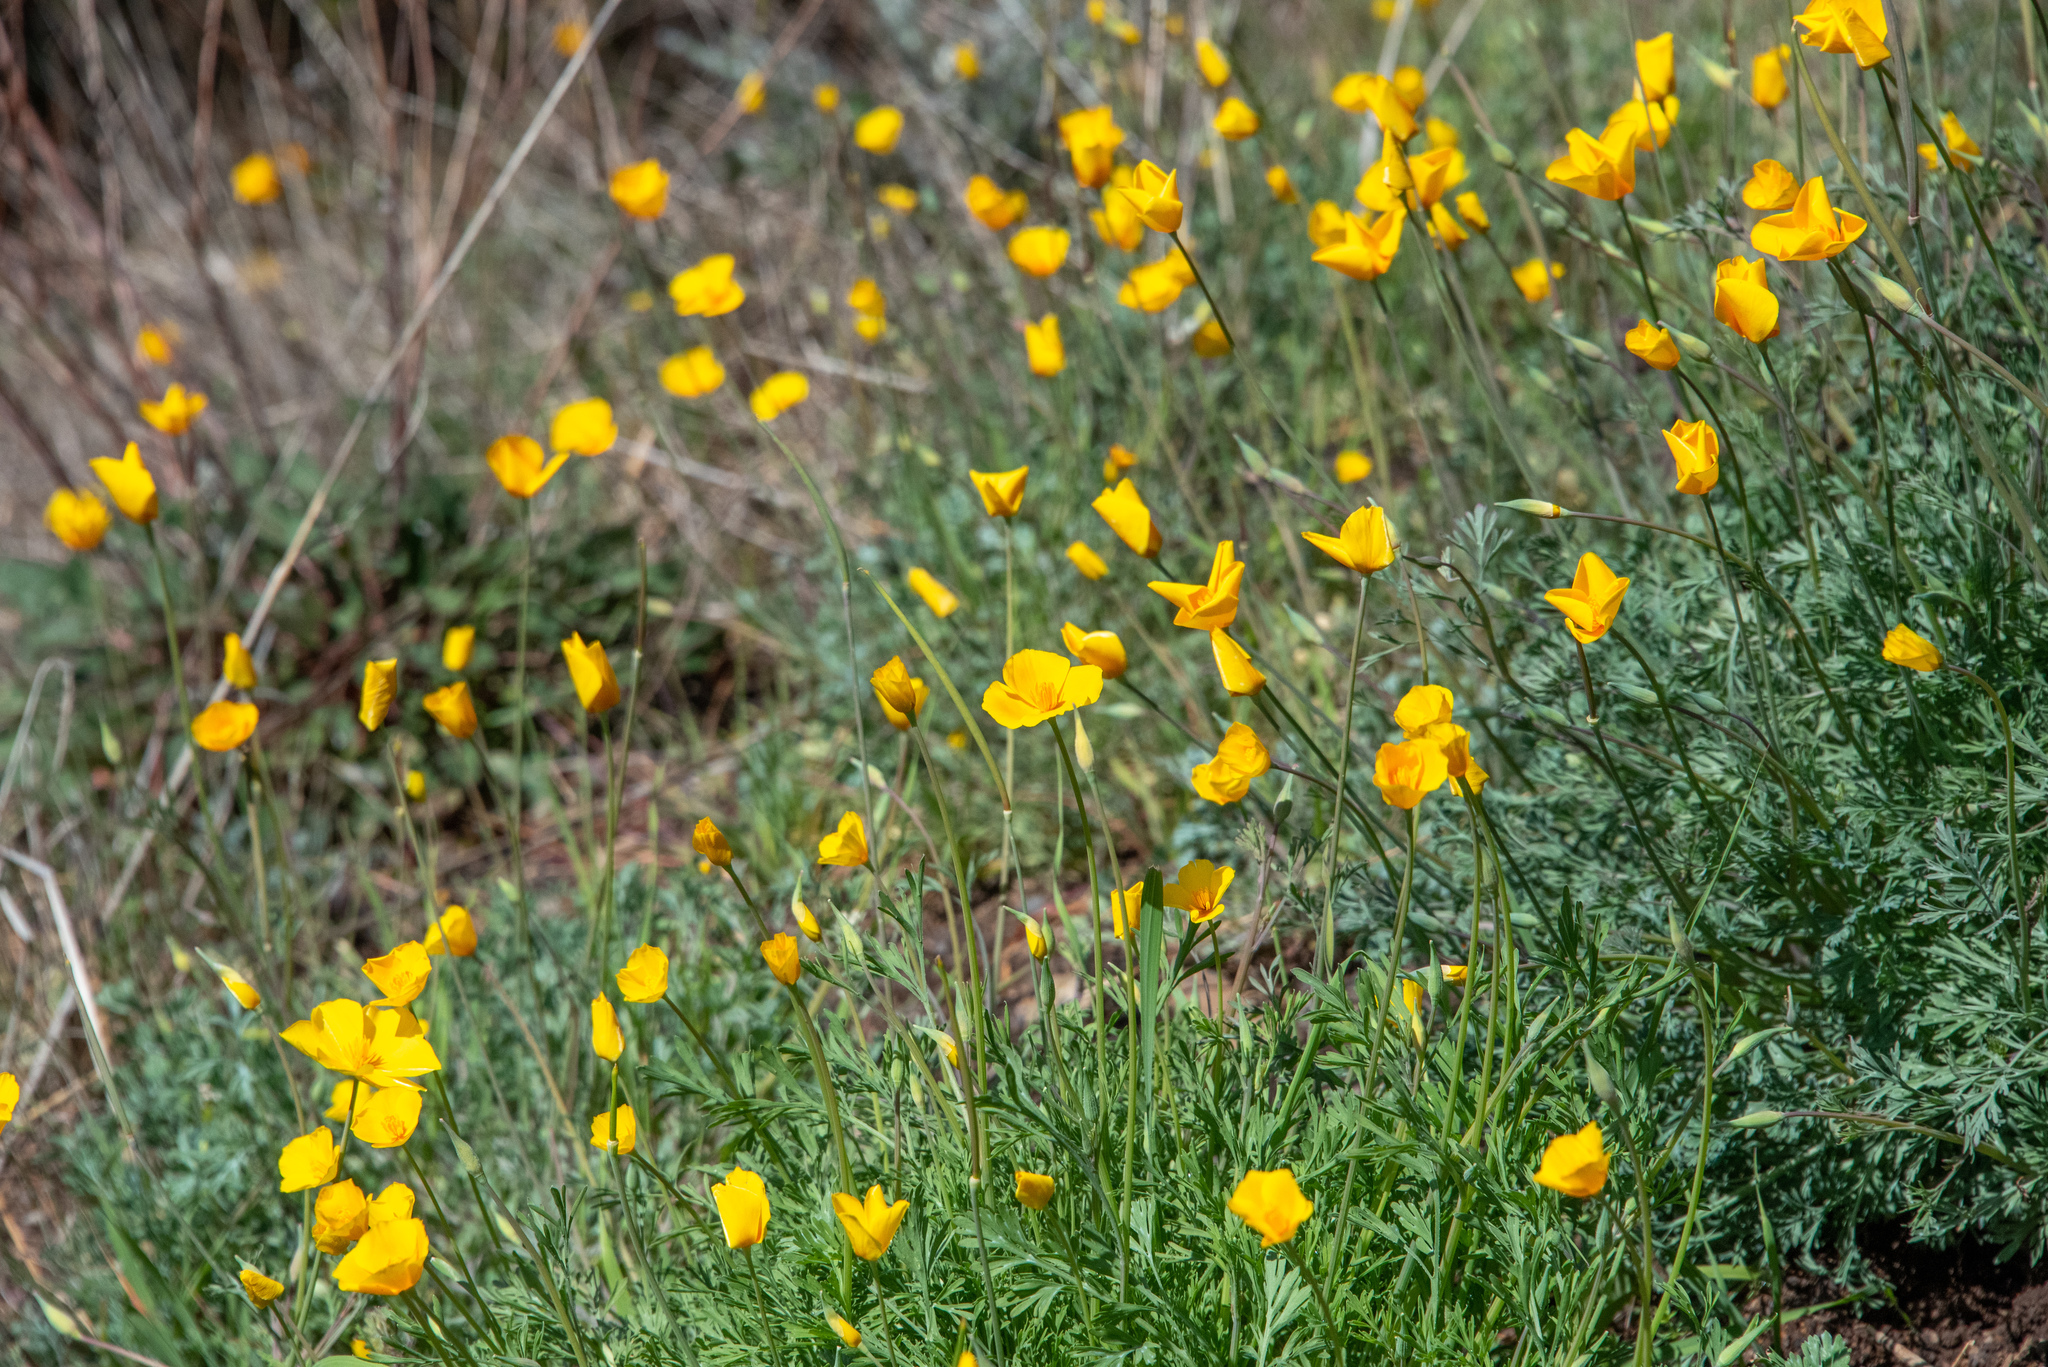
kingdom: Plantae
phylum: Tracheophyta
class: Magnoliopsida
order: Ranunculales
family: Papaveraceae
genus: Eschscholzia
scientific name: Eschscholzia caespitosa
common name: Tufted california-poppy
